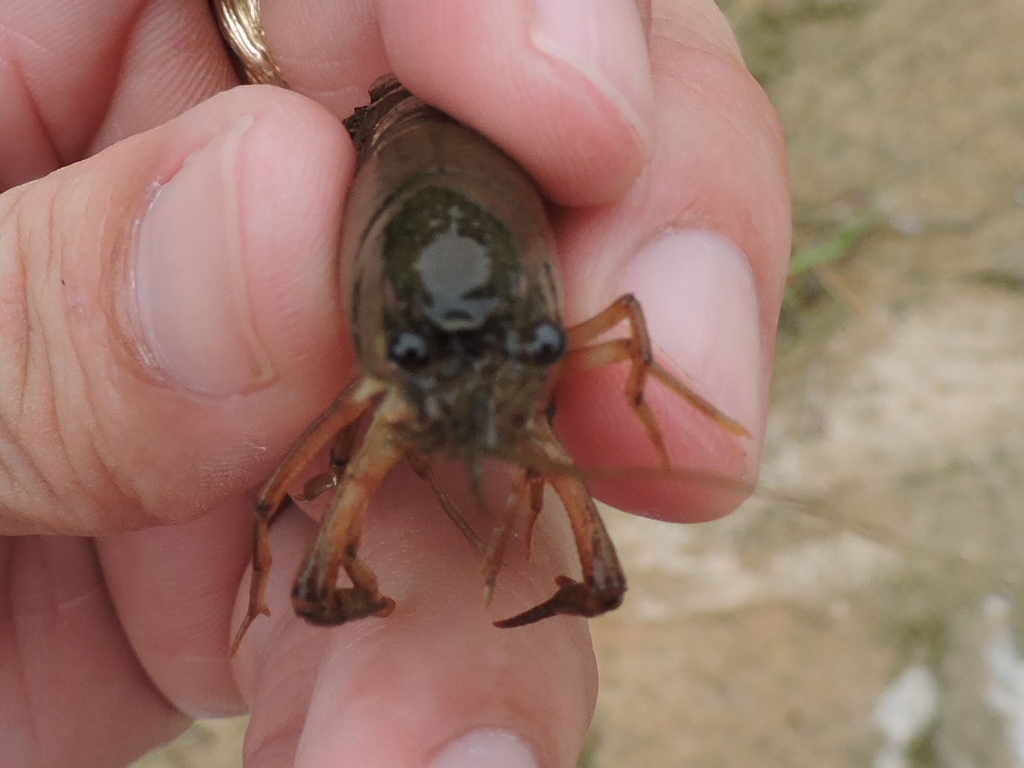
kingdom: Animalia
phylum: Arthropoda
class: Malacostraca
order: Decapoda
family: Cambaridae
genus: Procambarus
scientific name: Procambarus clarkii
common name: Red swamp crayfish
